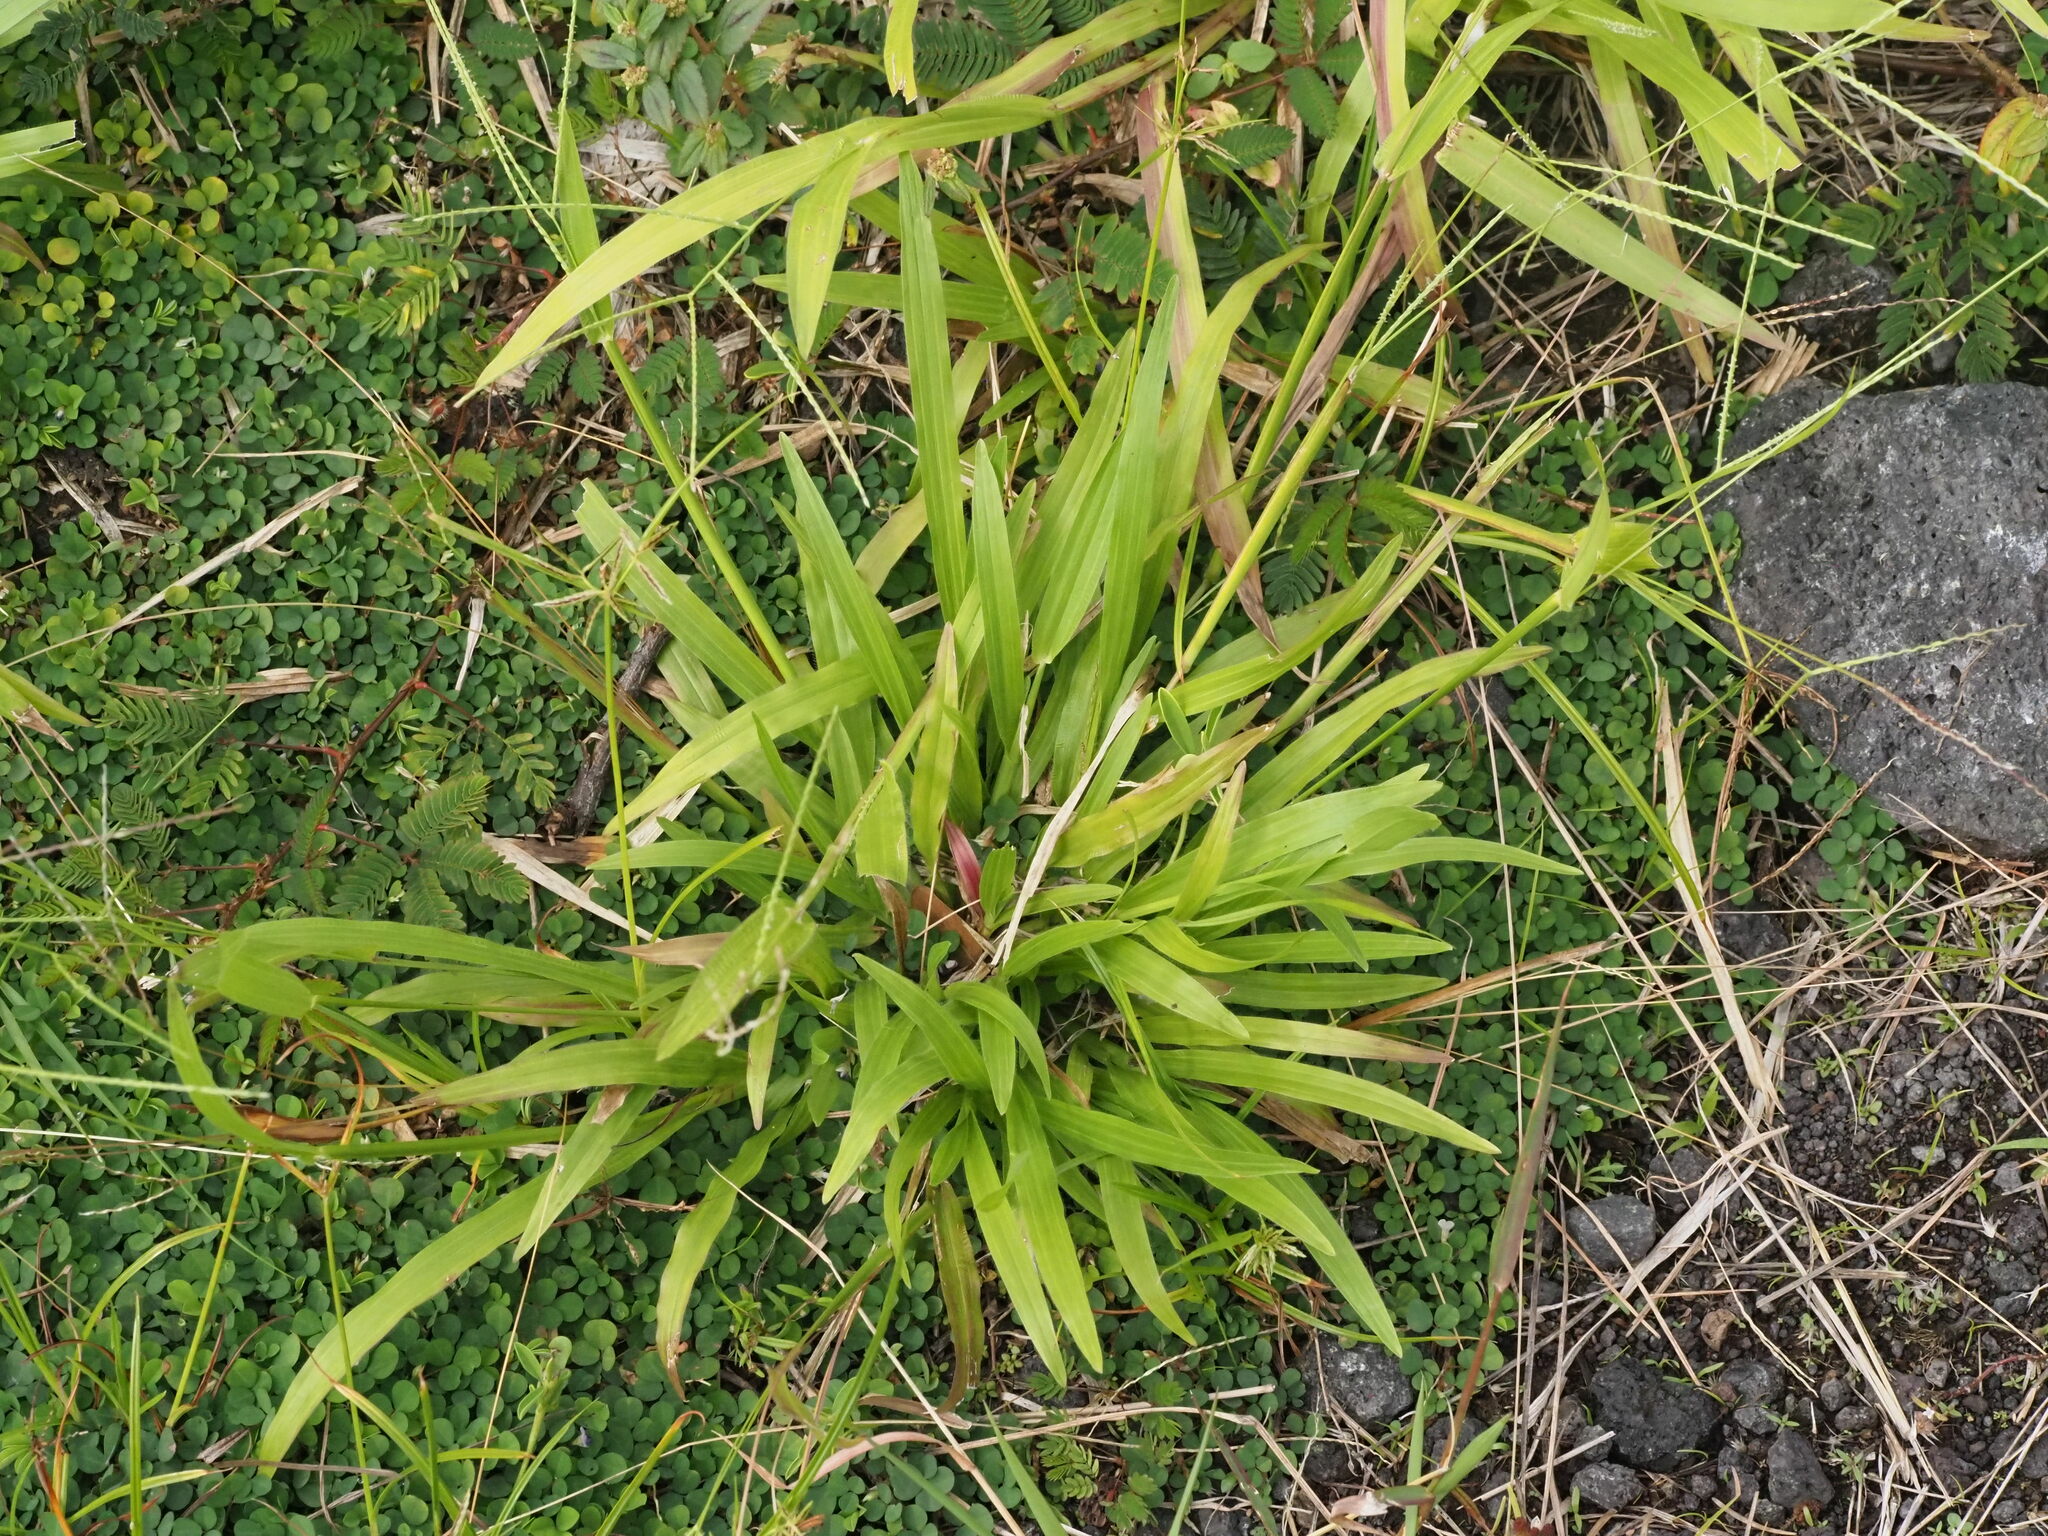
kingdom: Plantae
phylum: Tracheophyta
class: Liliopsida
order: Poales
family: Poaceae
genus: Axonopus
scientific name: Axonopus compressus
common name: American carpet grass
